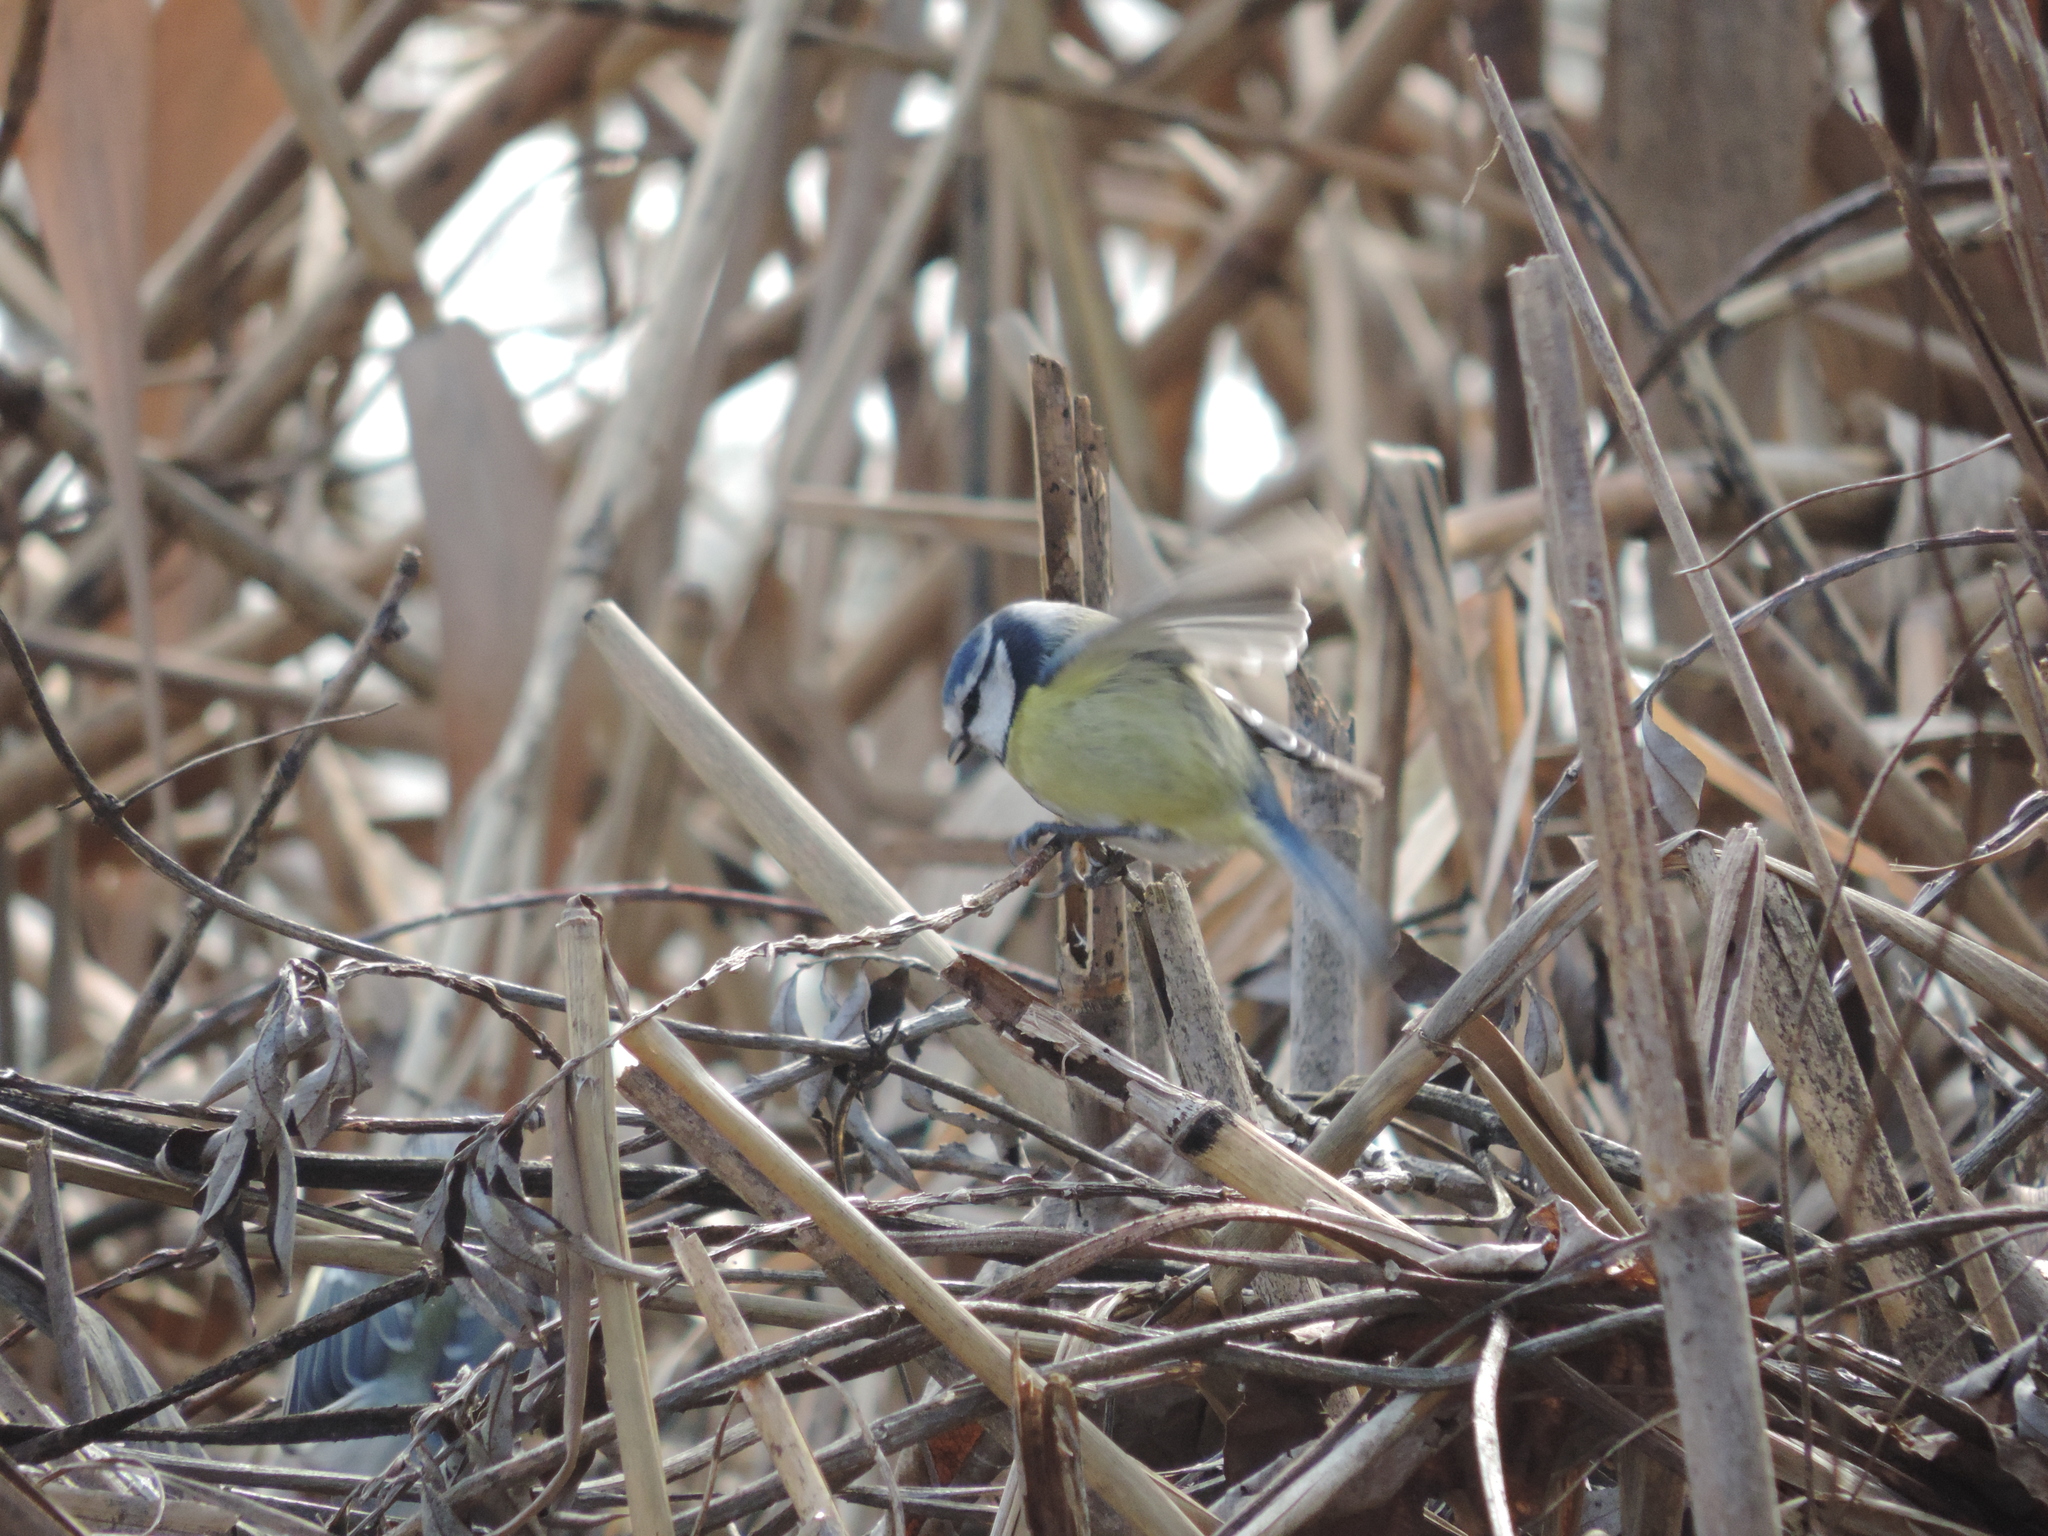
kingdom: Animalia
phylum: Chordata
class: Aves
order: Passeriformes
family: Paridae
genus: Cyanistes
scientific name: Cyanistes caeruleus
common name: Eurasian blue tit
